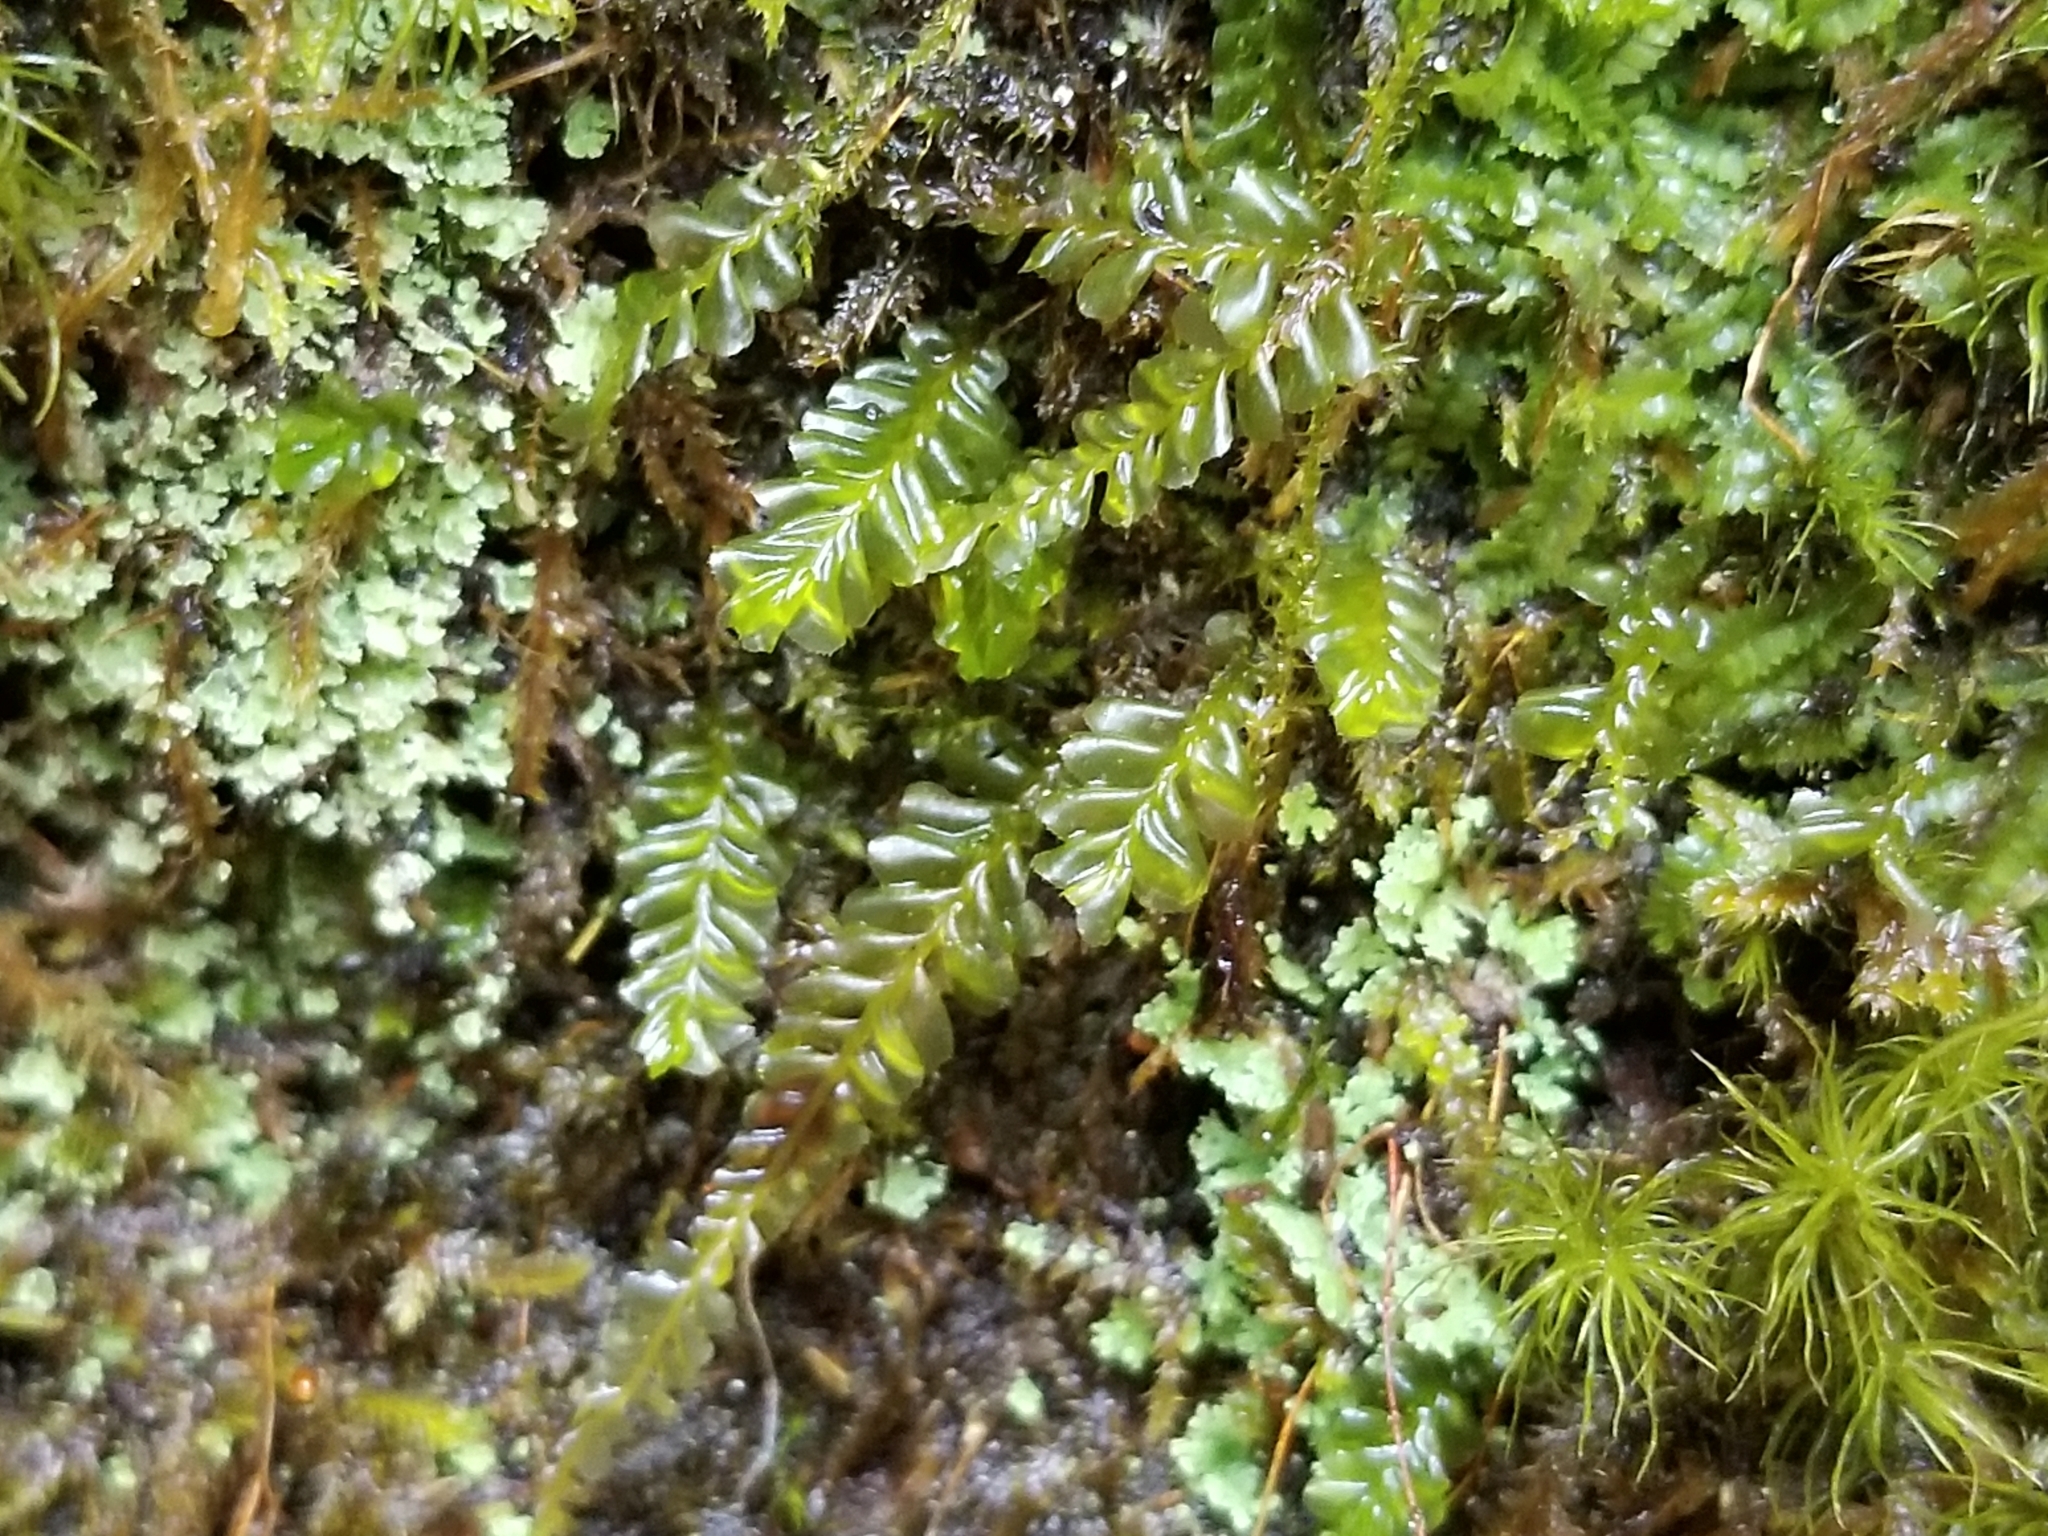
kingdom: Plantae
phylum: Marchantiophyta
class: Jungermanniopsida
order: Jungermanniales
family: Plagiochilaceae
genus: Plagiochila
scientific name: Plagiochila porelloides
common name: Lesser featherwort
